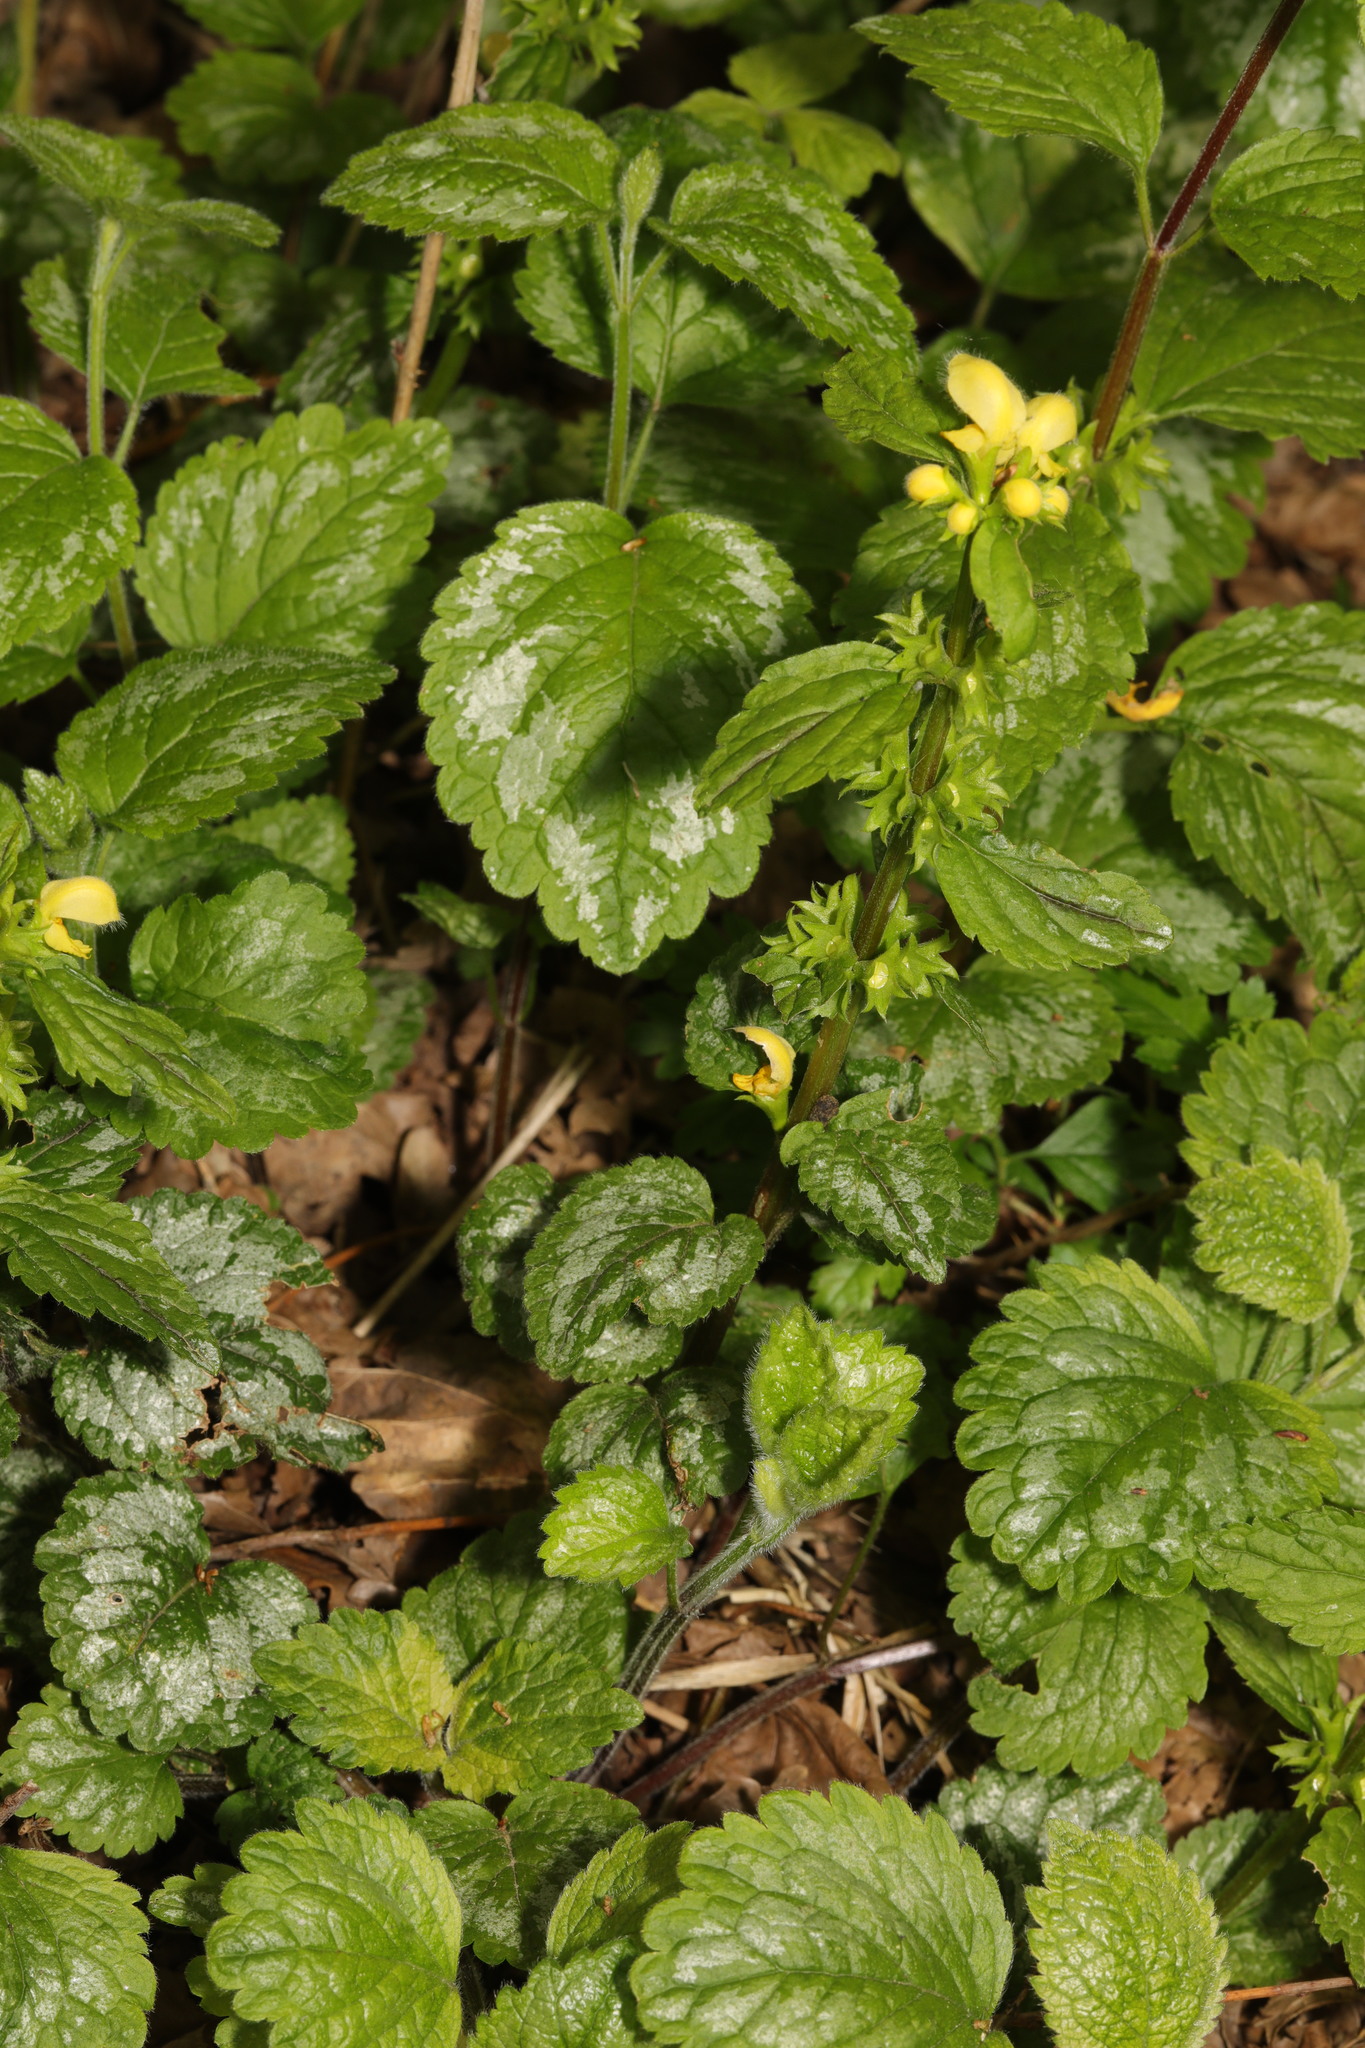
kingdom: Plantae
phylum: Tracheophyta
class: Magnoliopsida
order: Lamiales
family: Lamiaceae
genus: Lamium
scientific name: Lamium galeobdolon
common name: Yellow archangel
